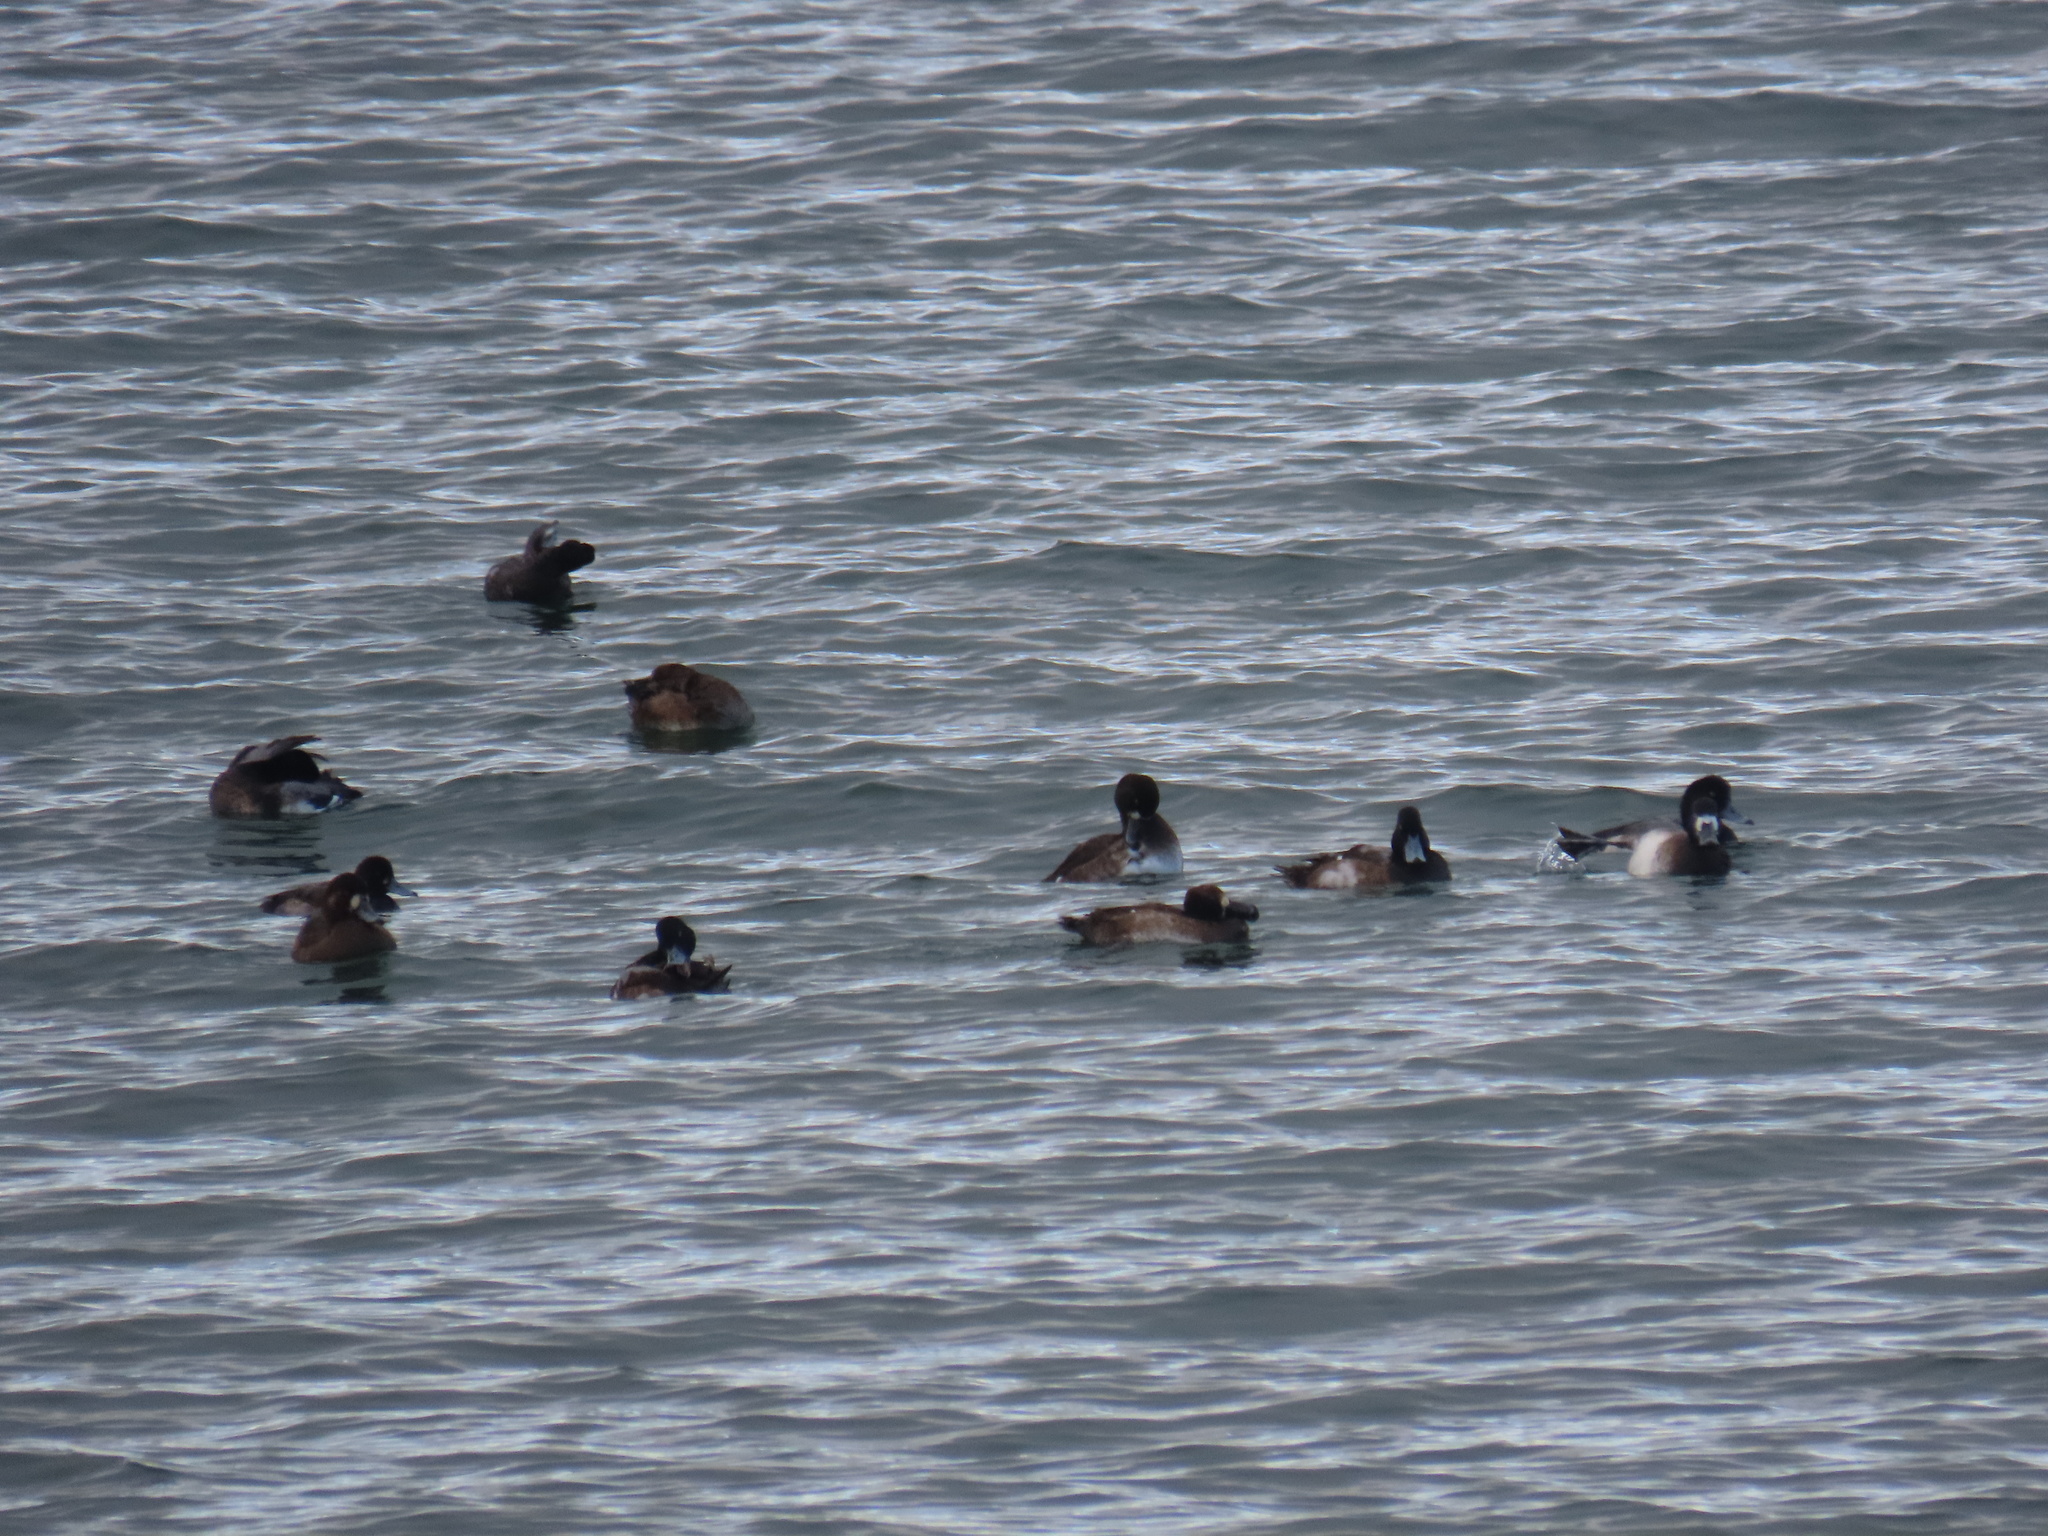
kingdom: Animalia
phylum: Chordata
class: Aves
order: Anseriformes
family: Anatidae
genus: Aythya
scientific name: Aythya marila
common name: Greater scaup
